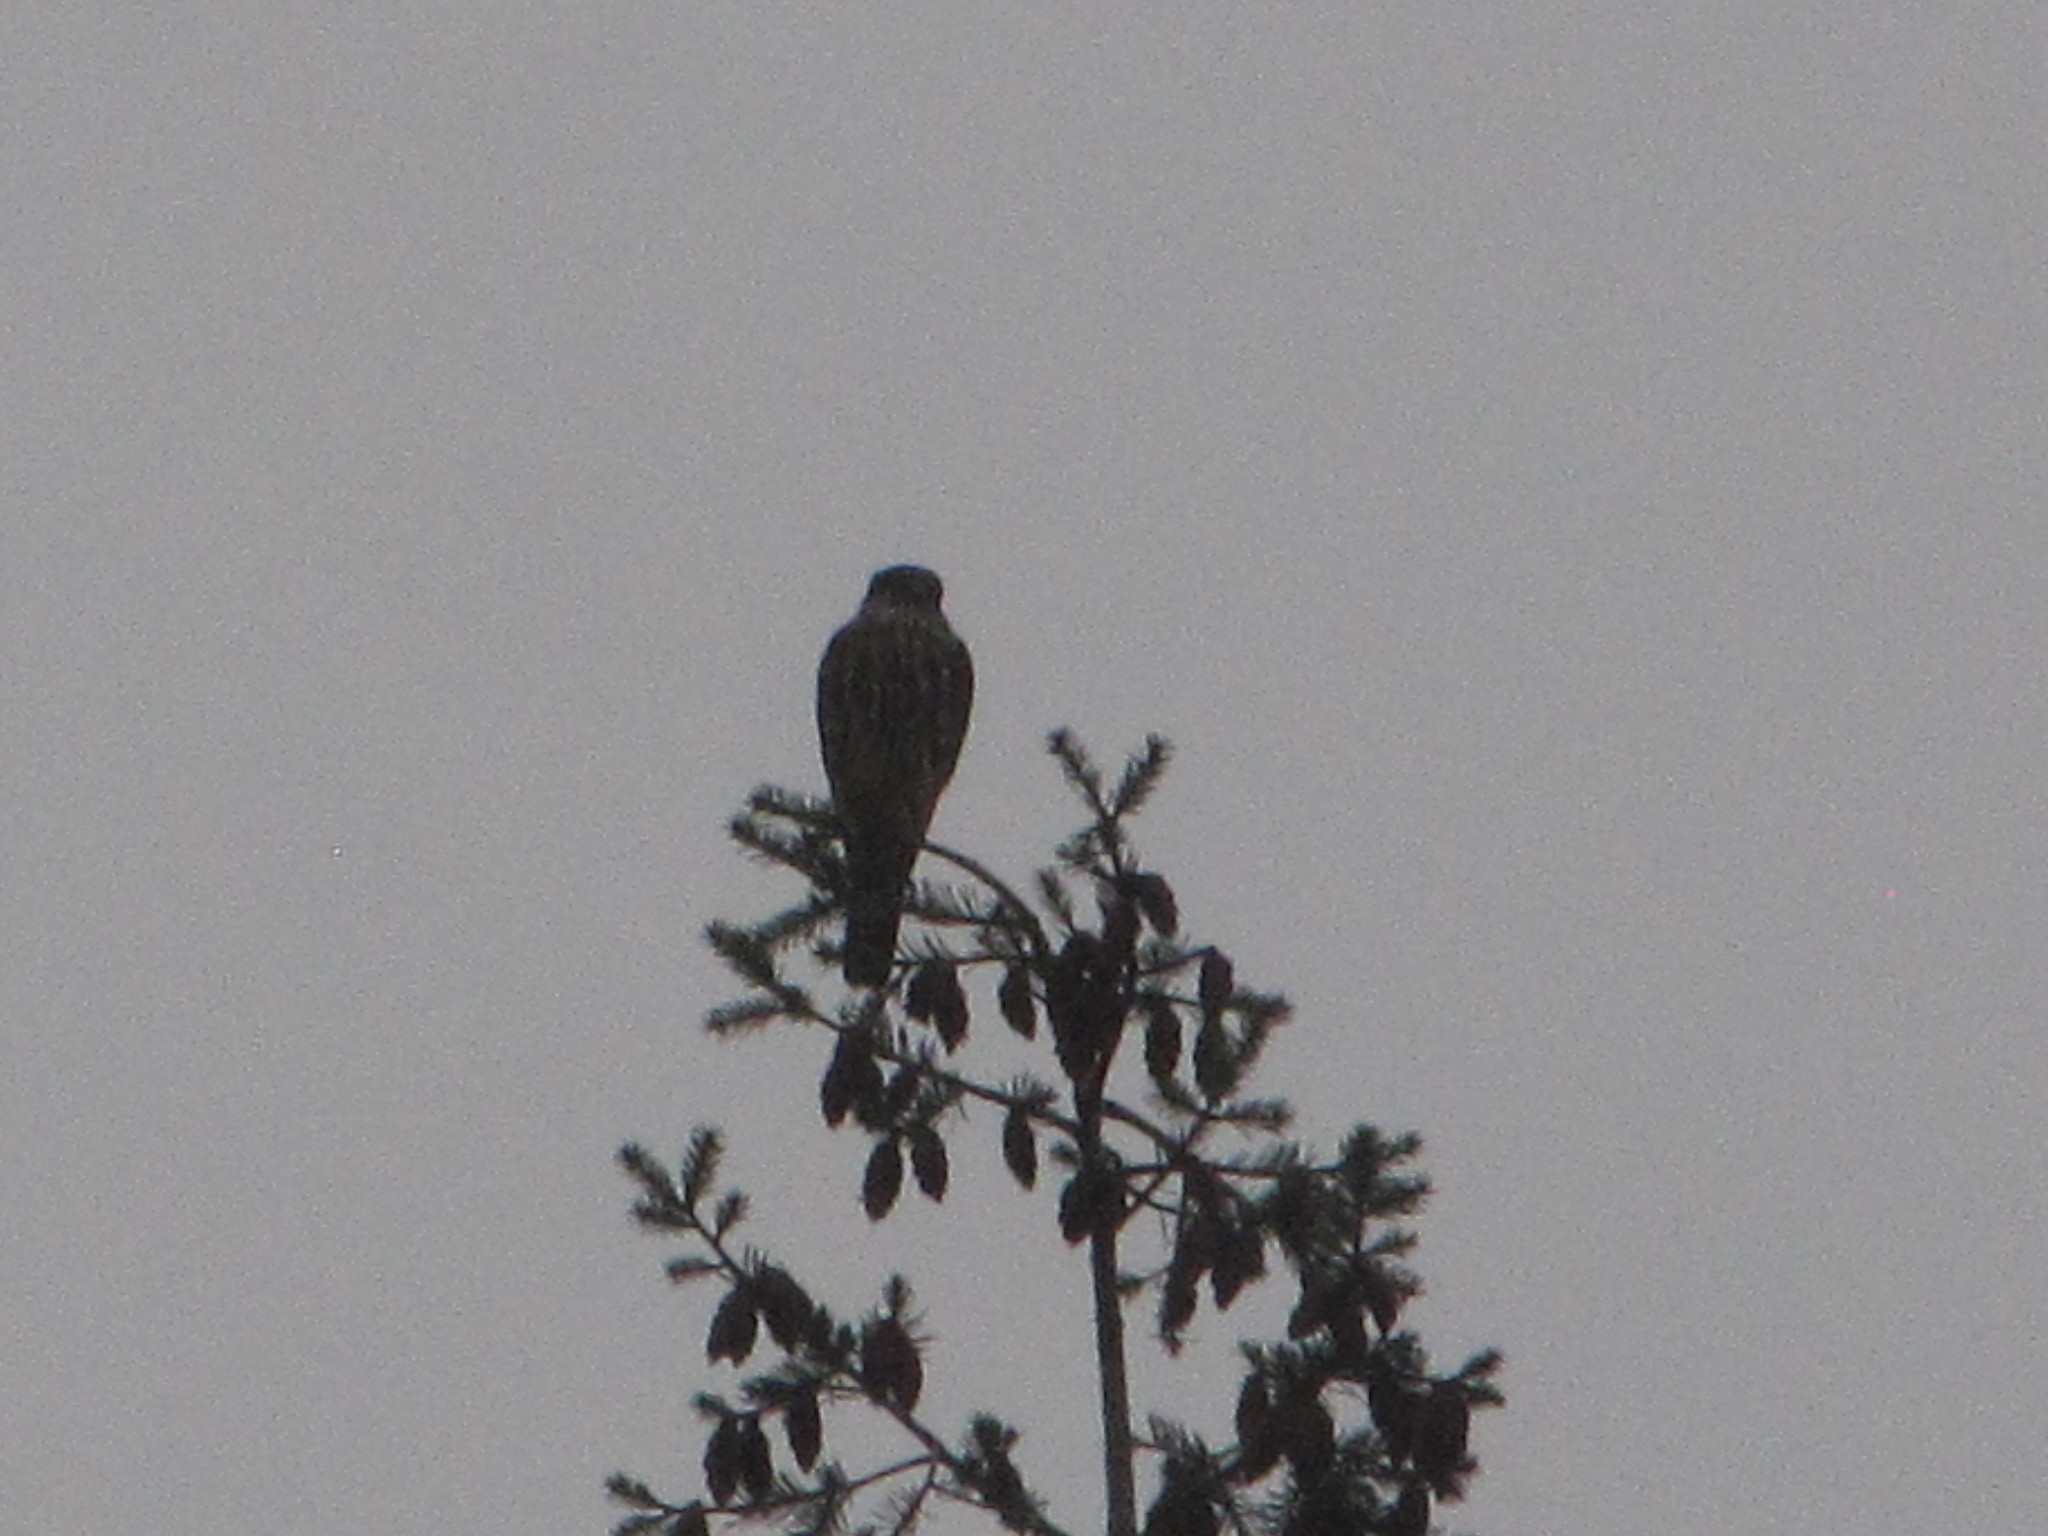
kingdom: Animalia
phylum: Chordata
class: Aves
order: Falconiformes
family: Falconidae
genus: Falco
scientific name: Falco columbarius
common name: Merlin
